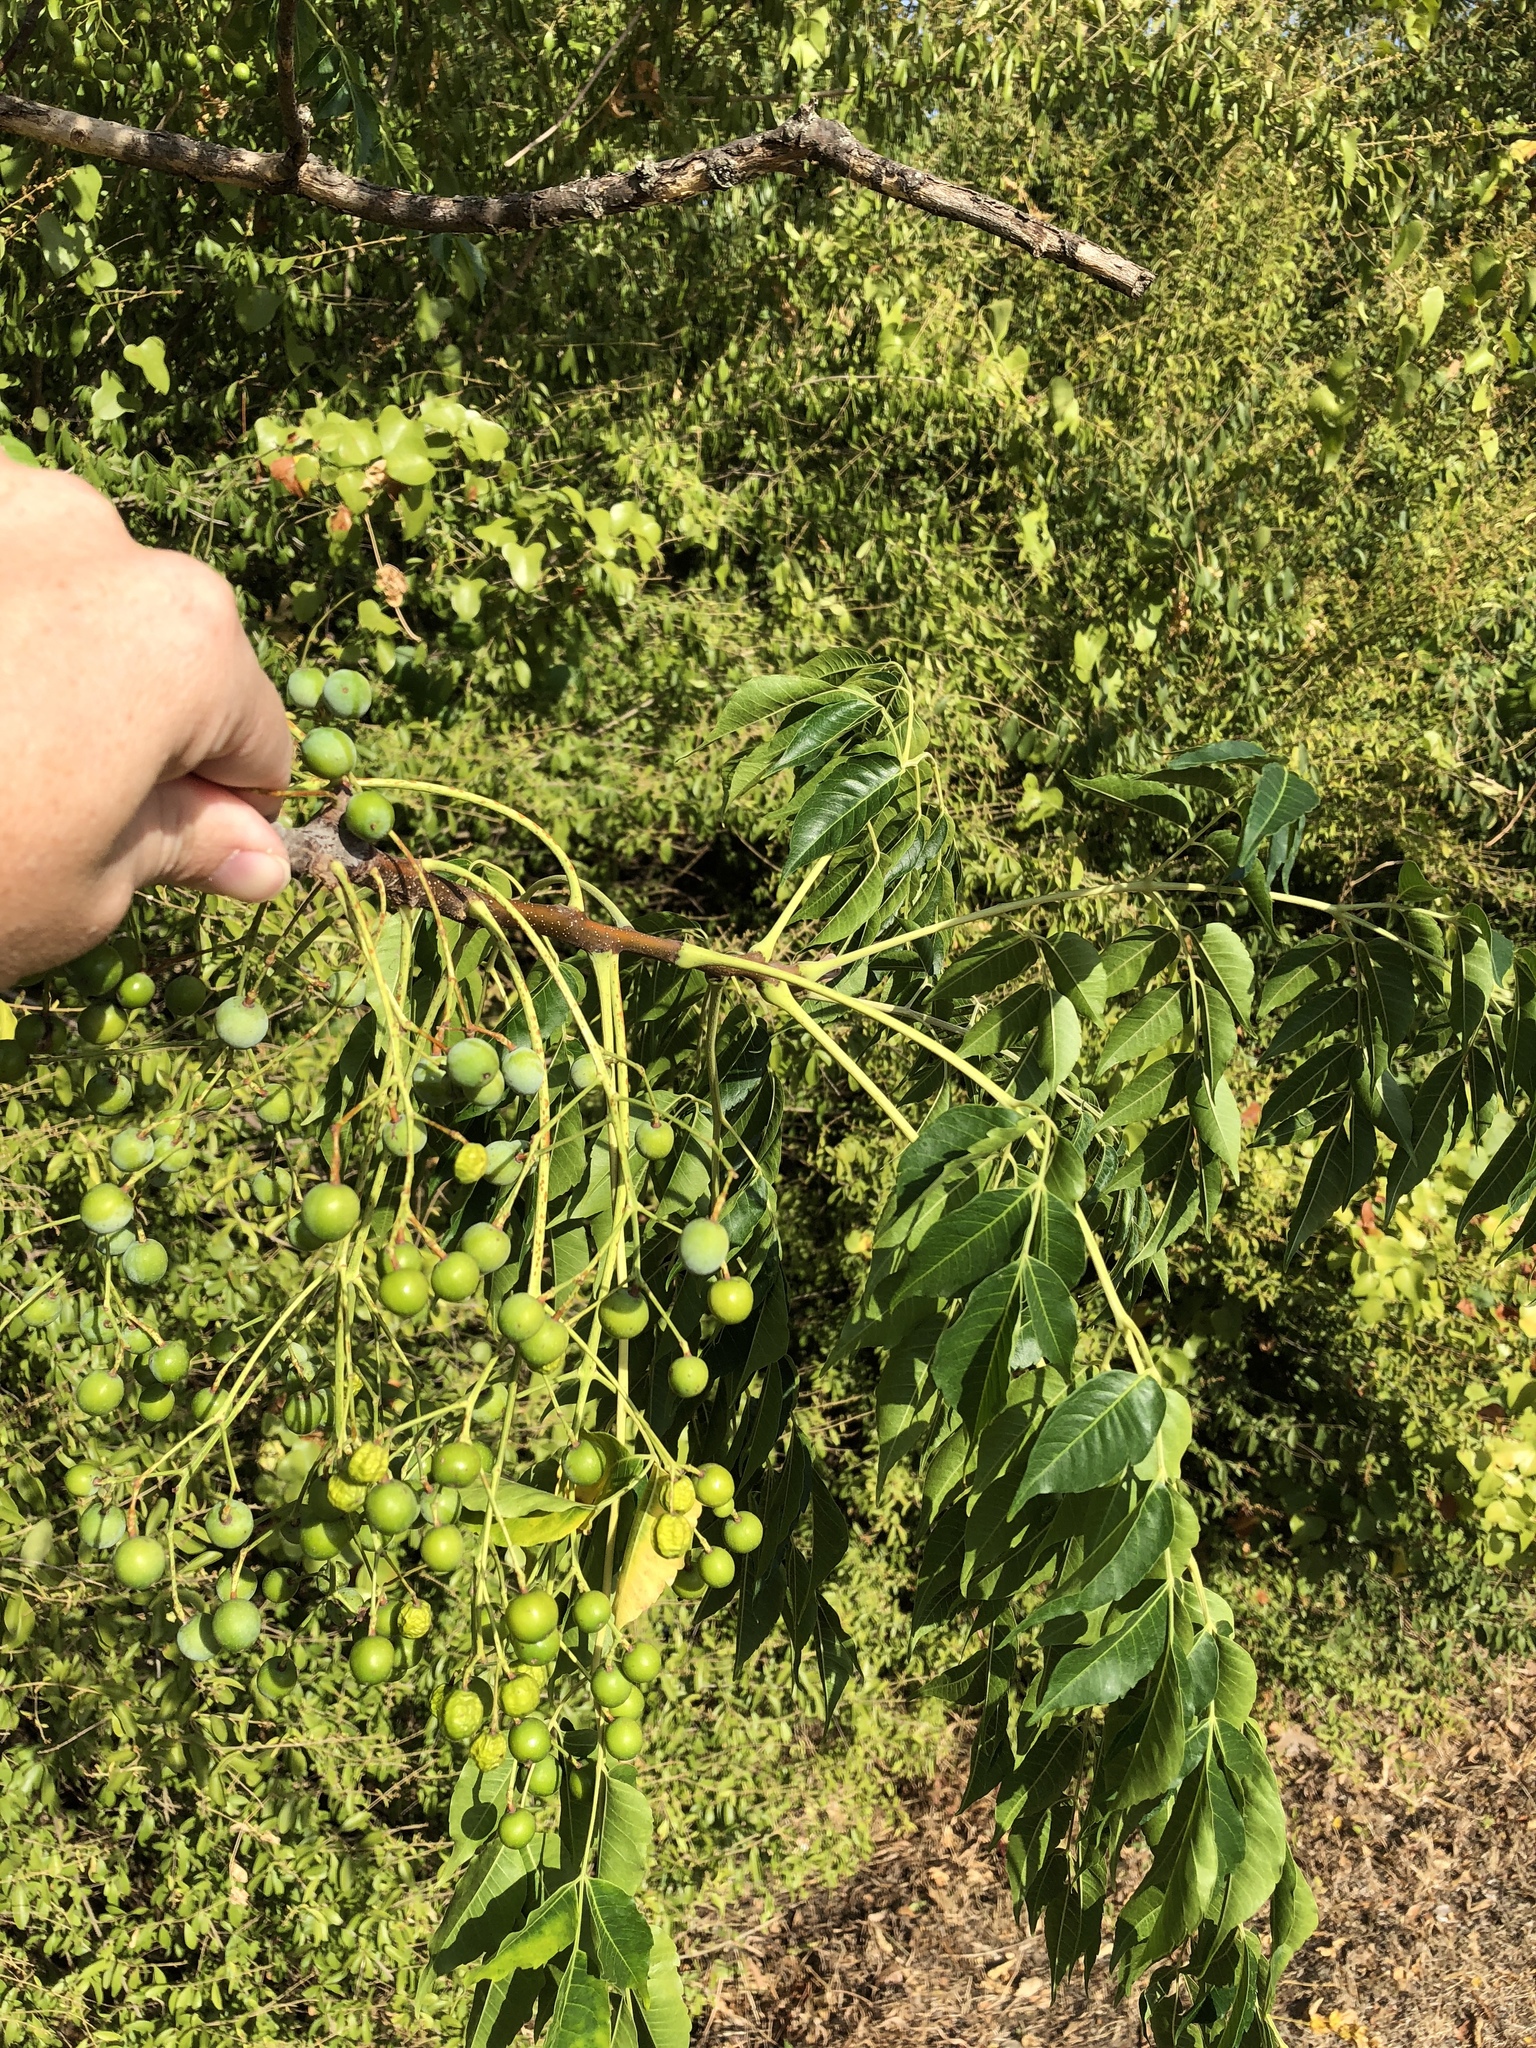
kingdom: Plantae
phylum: Tracheophyta
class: Magnoliopsida
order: Sapindales
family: Meliaceae
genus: Melia
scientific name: Melia azedarach
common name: Chinaberrytree
